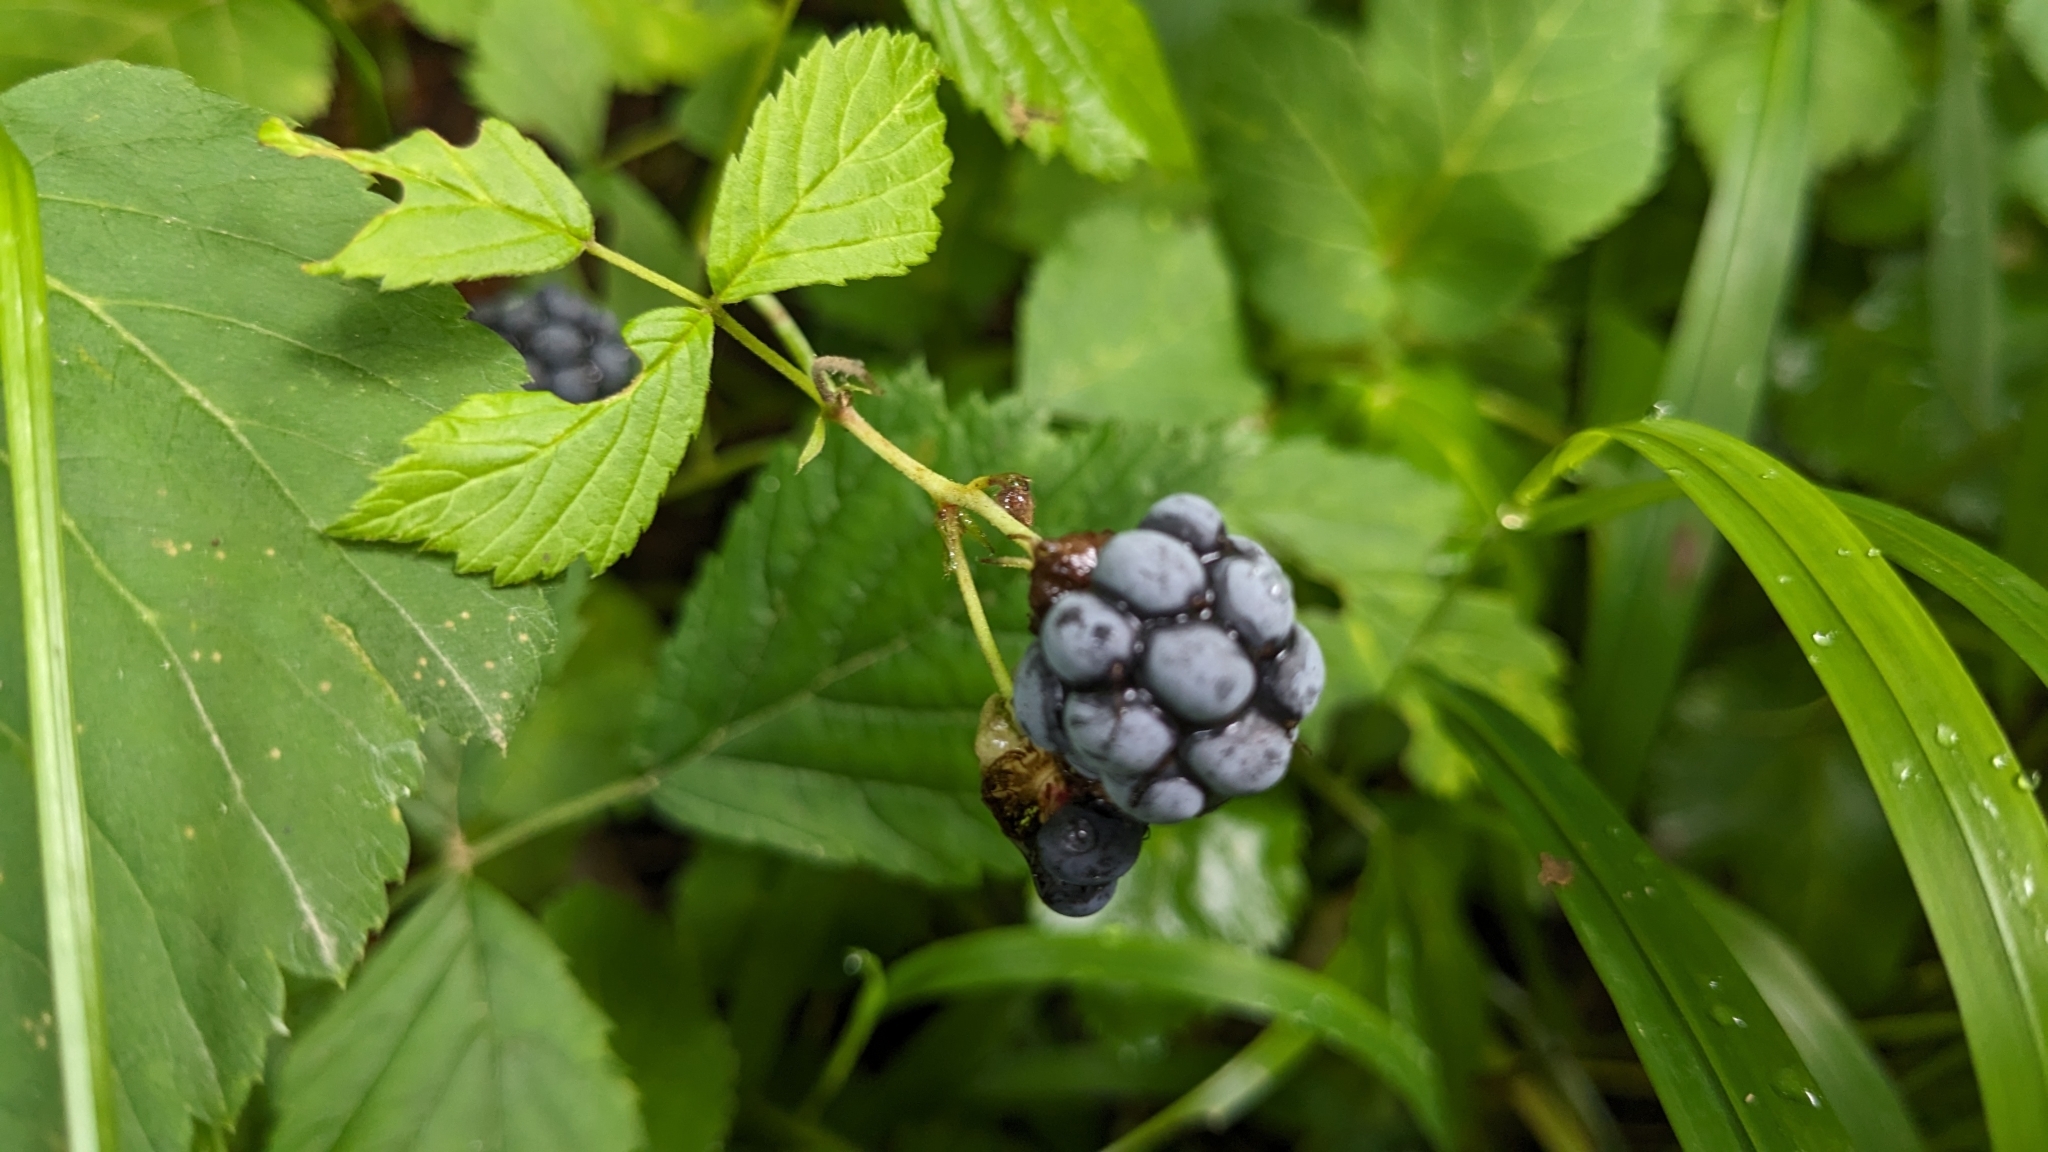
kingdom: Plantae
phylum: Tracheophyta
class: Magnoliopsida
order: Rosales
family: Rosaceae
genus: Rubus
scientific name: Rubus caesius
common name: Dewberry
